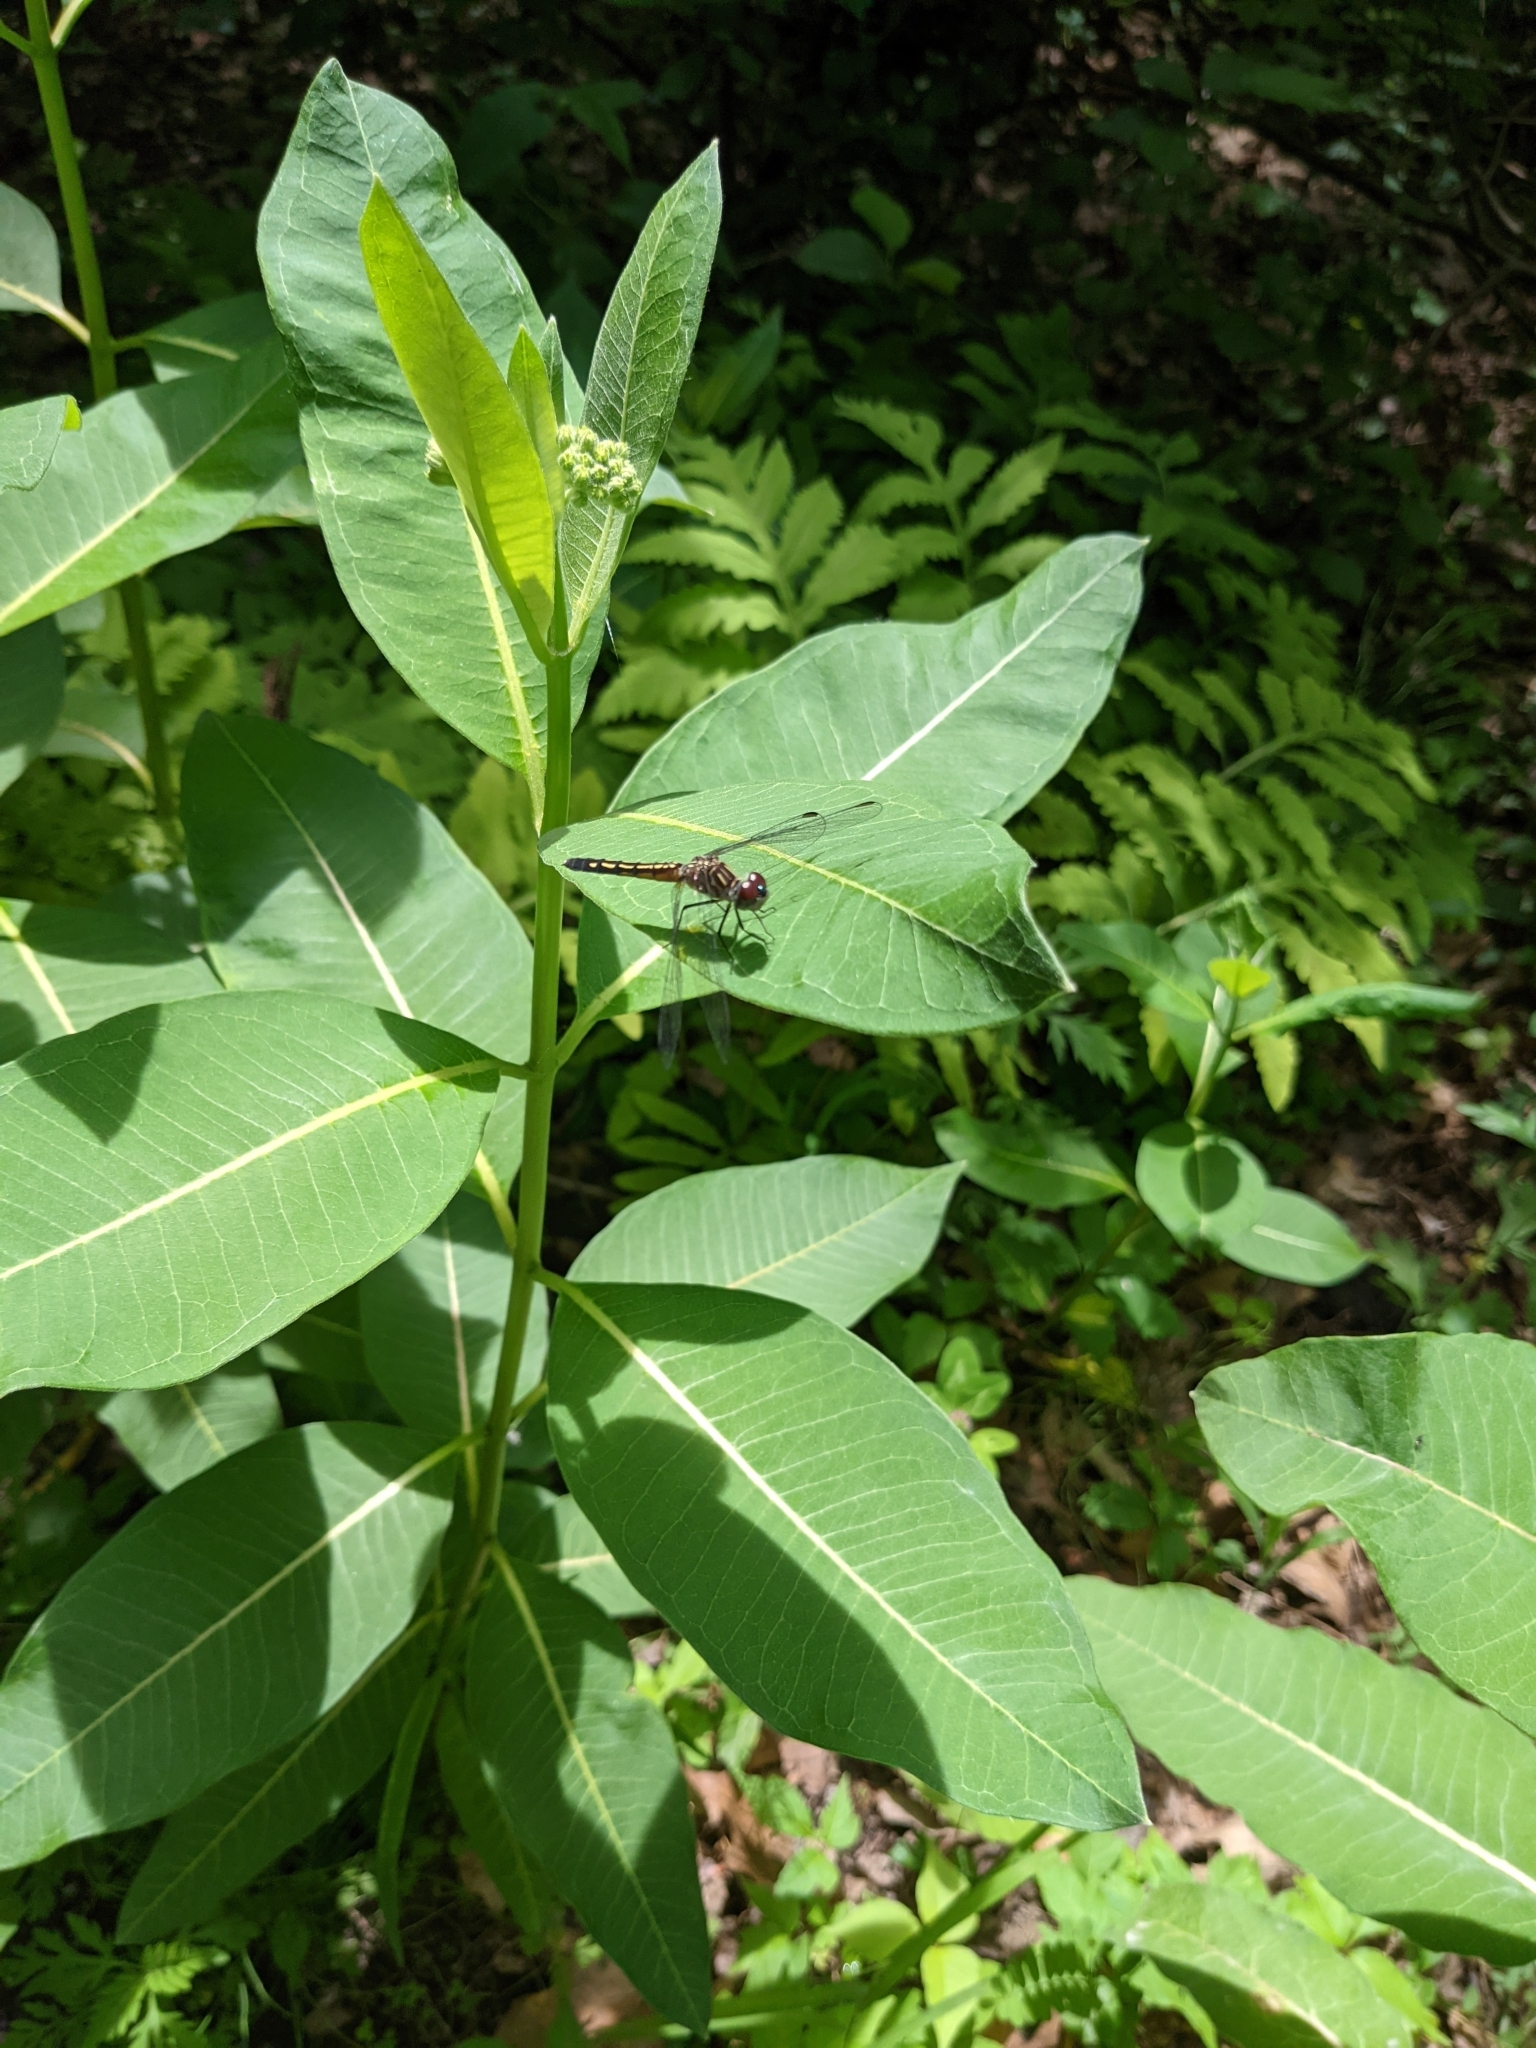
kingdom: Animalia
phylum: Arthropoda
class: Insecta
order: Odonata
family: Libellulidae
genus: Pachydiplax
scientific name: Pachydiplax longipennis
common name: Blue dasher
